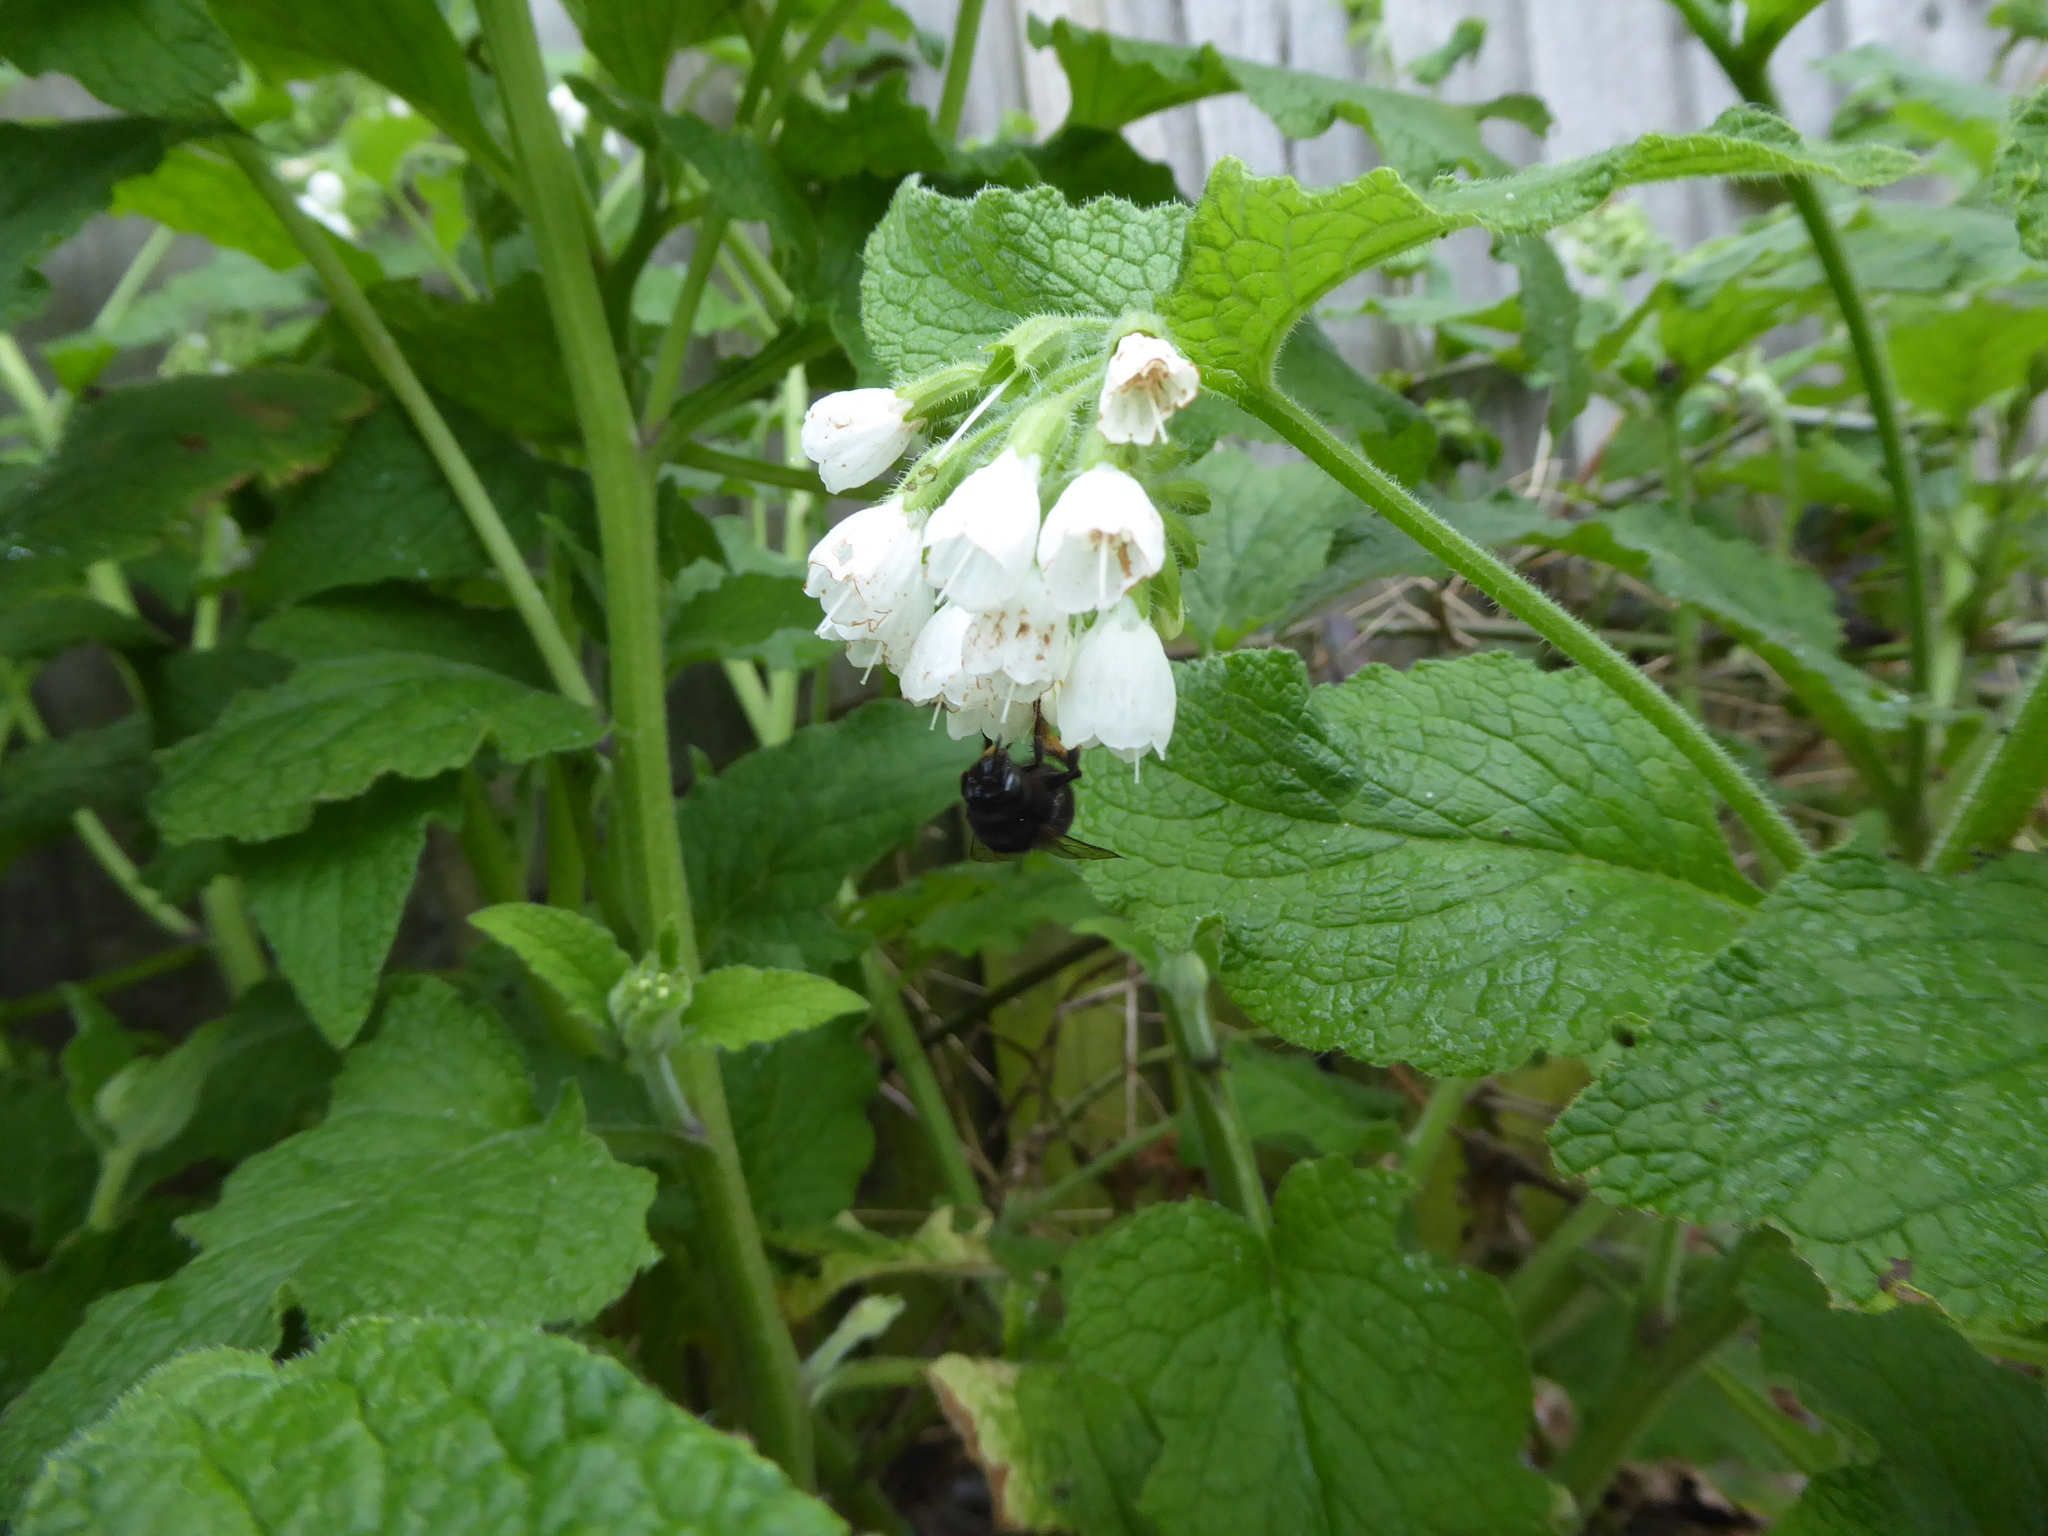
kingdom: Animalia
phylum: Arthropoda
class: Insecta
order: Hymenoptera
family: Apidae
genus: Anthophora
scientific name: Anthophora plumipes
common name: Hairy-footed flower bee
